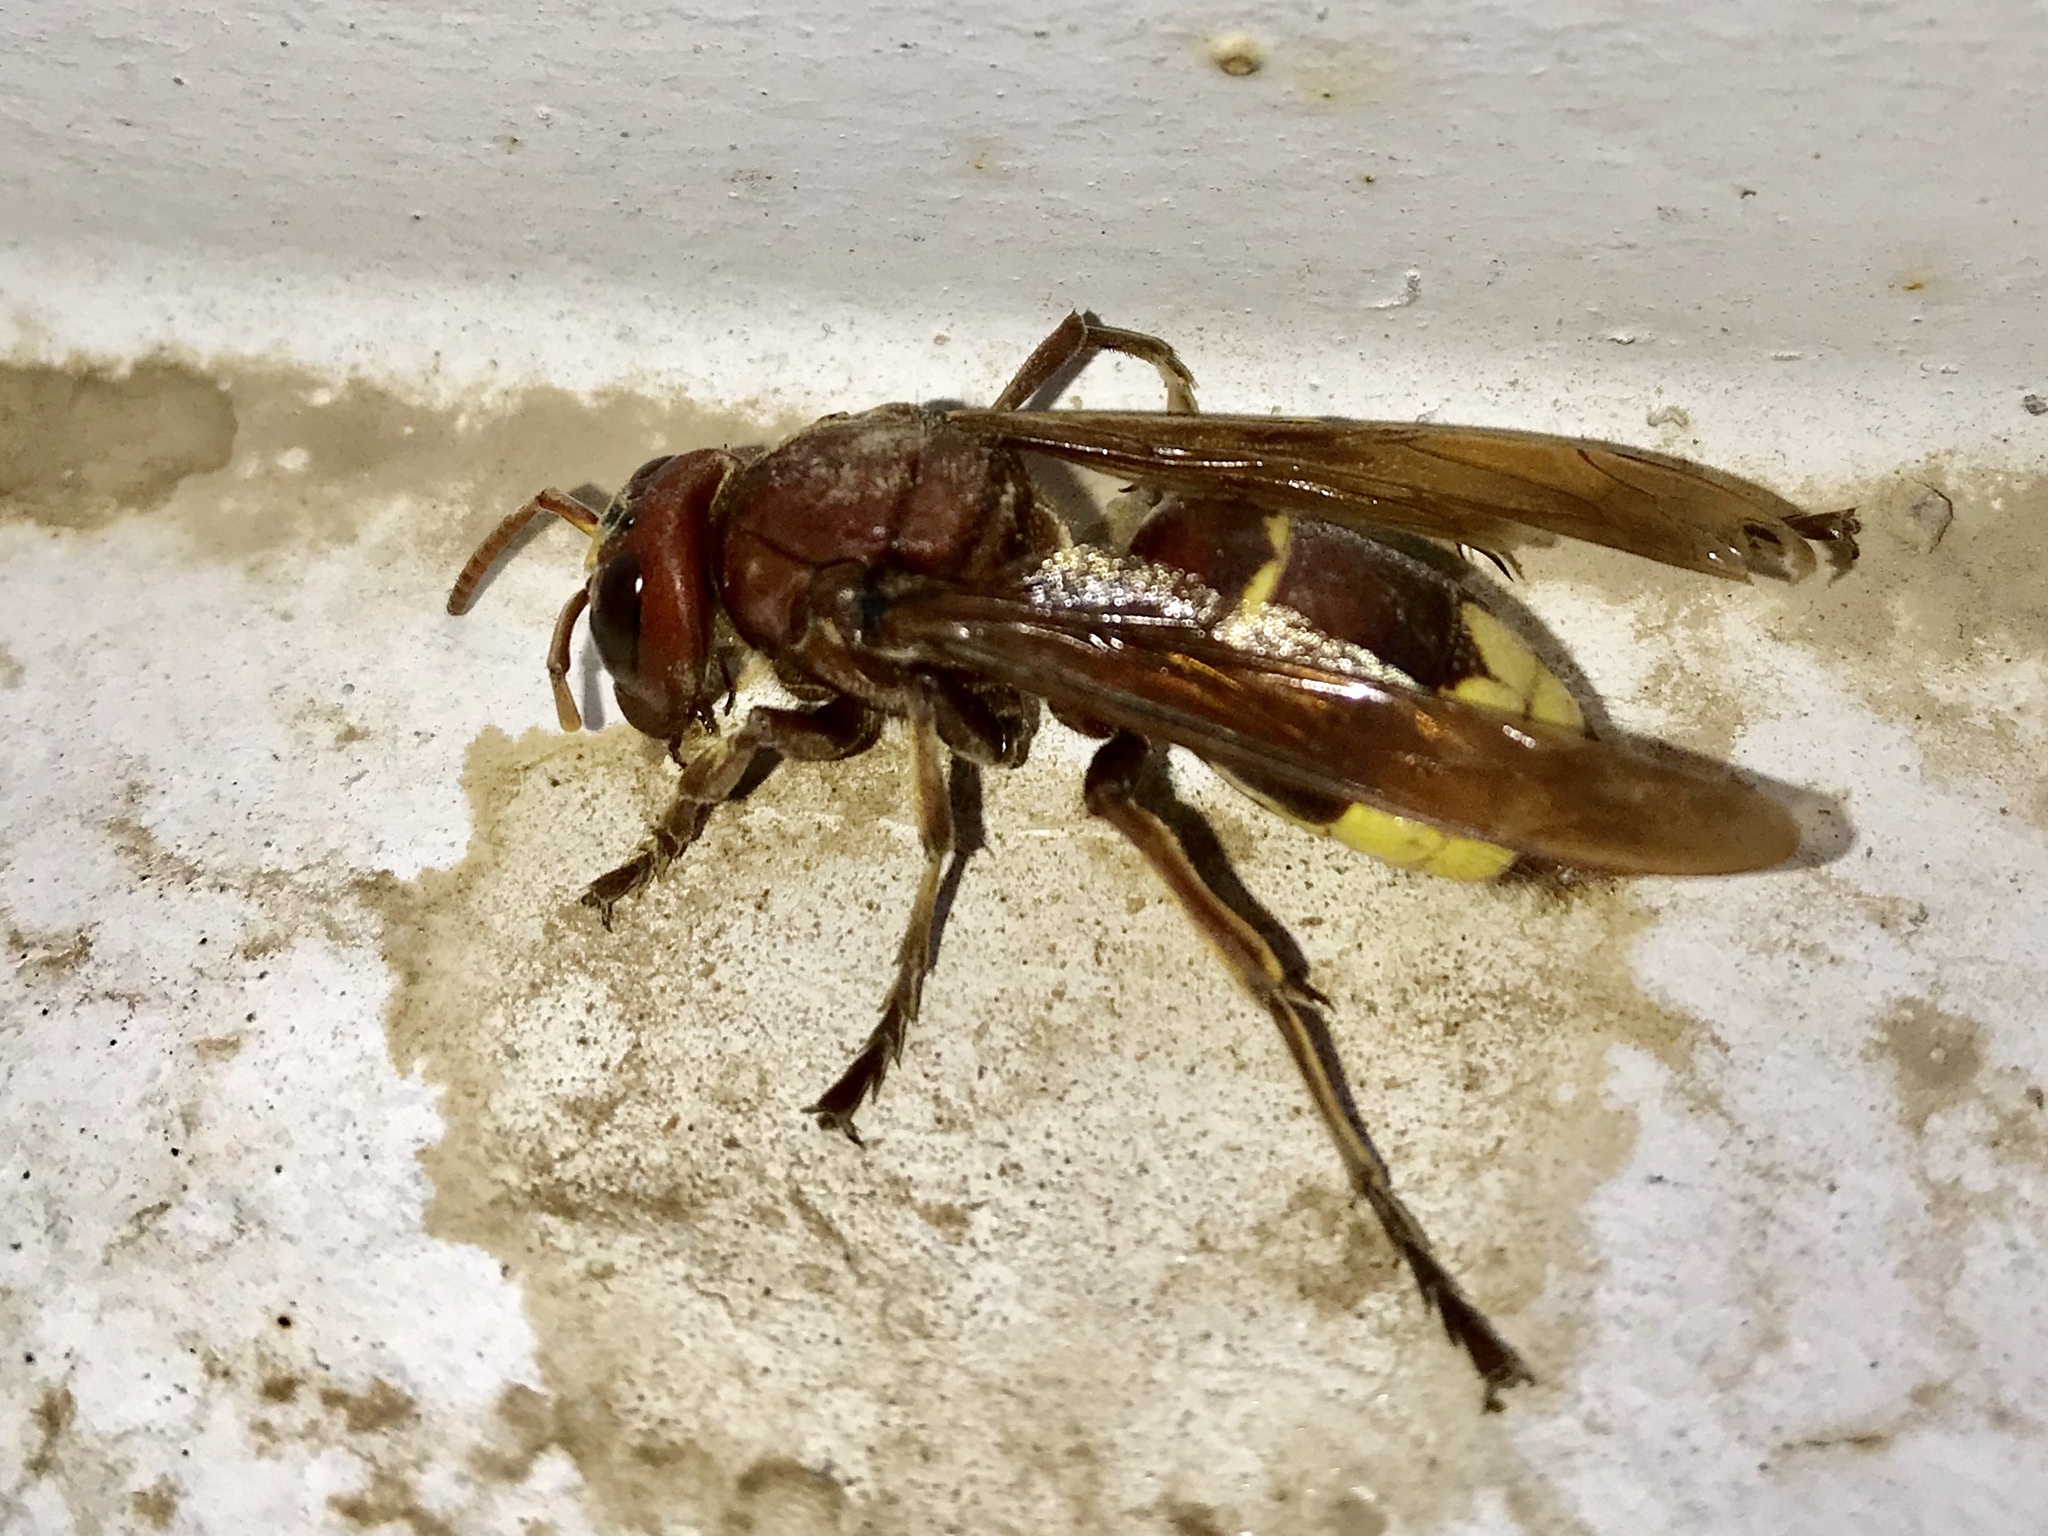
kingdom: Animalia
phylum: Arthropoda
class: Insecta
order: Hymenoptera
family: Vespidae
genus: Vespa
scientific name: Vespa orientalis
